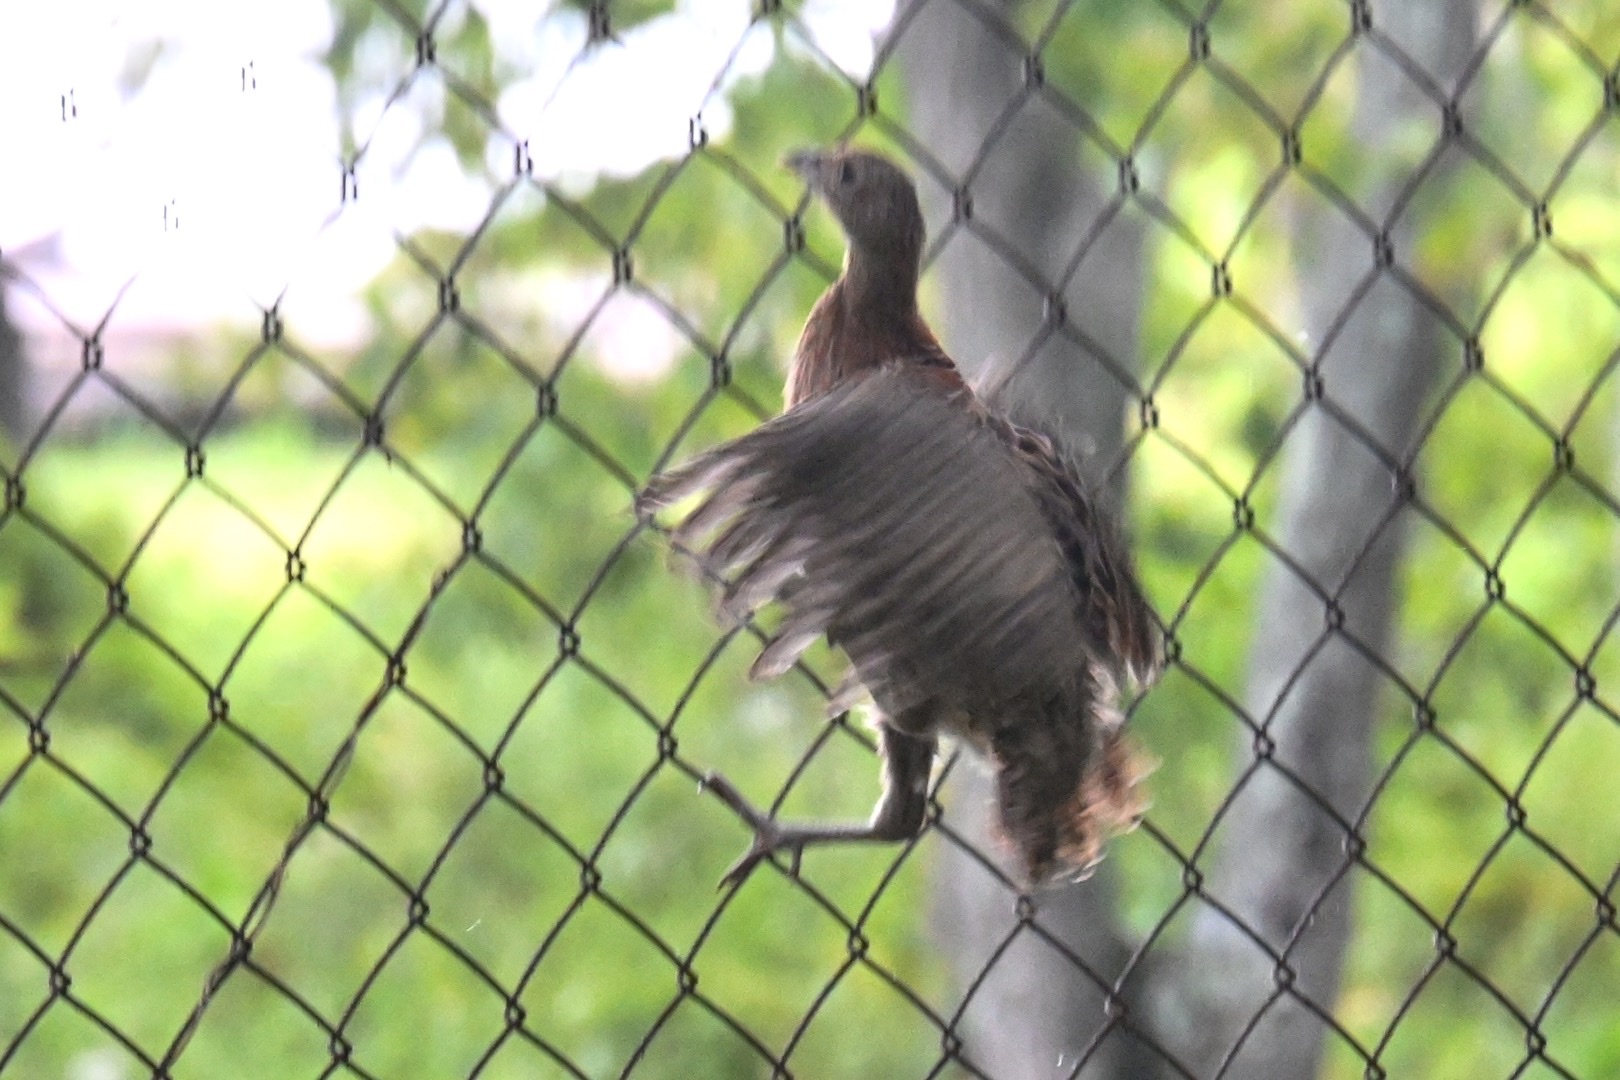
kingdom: Animalia
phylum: Chordata
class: Aves
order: Galliformes
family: Phasianidae
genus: Phasianus
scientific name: Phasianus colchicus
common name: Common pheasant
